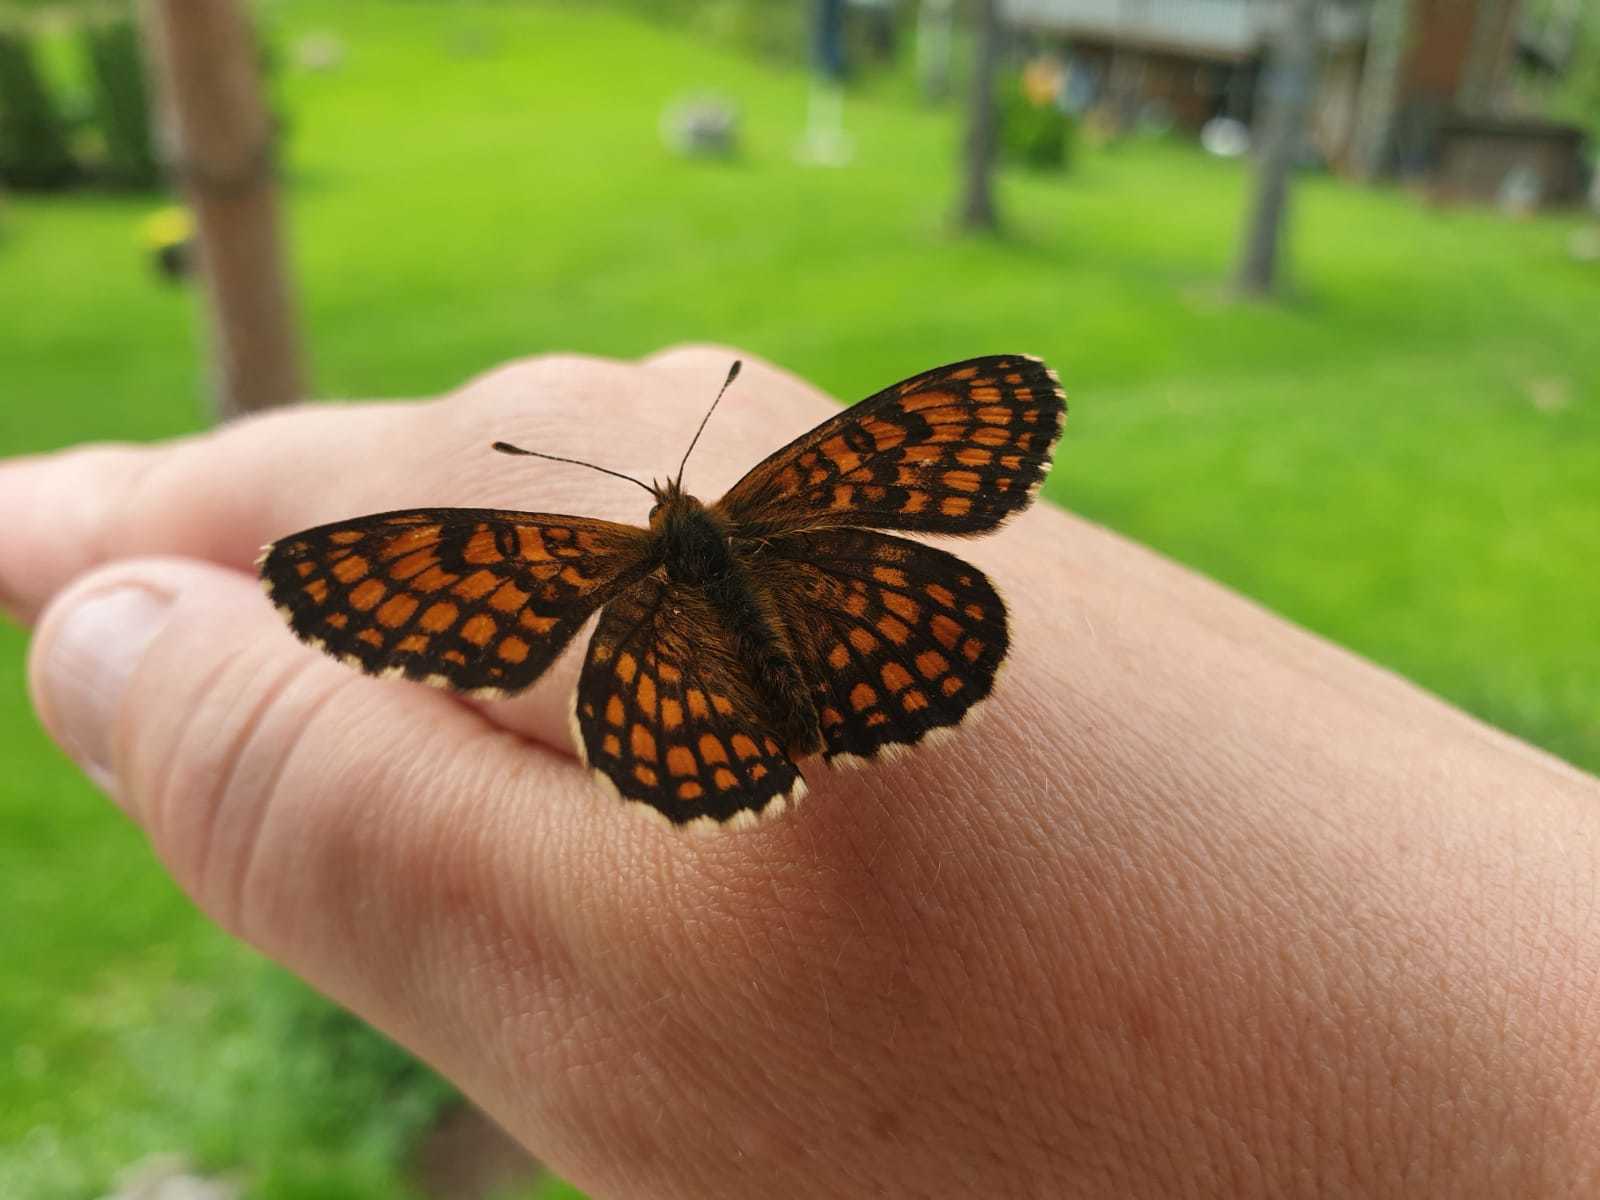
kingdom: Animalia
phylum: Arthropoda
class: Insecta
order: Lepidoptera
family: Nymphalidae
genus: Melitaea
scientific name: Melitaea athalia
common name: Heath fritillary
